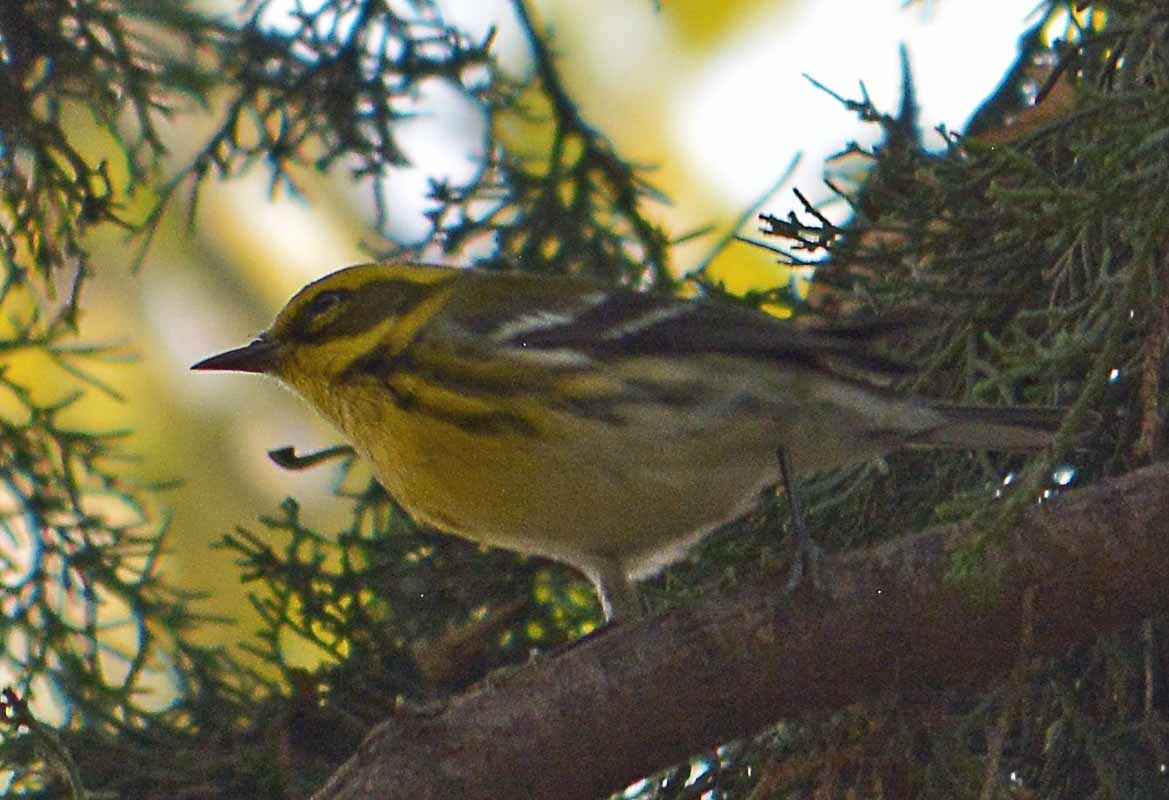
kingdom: Animalia
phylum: Chordata
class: Aves
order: Passeriformes
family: Parulidae
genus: Setophaga
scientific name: Setophaga townsendi
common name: Townsend's warbler
